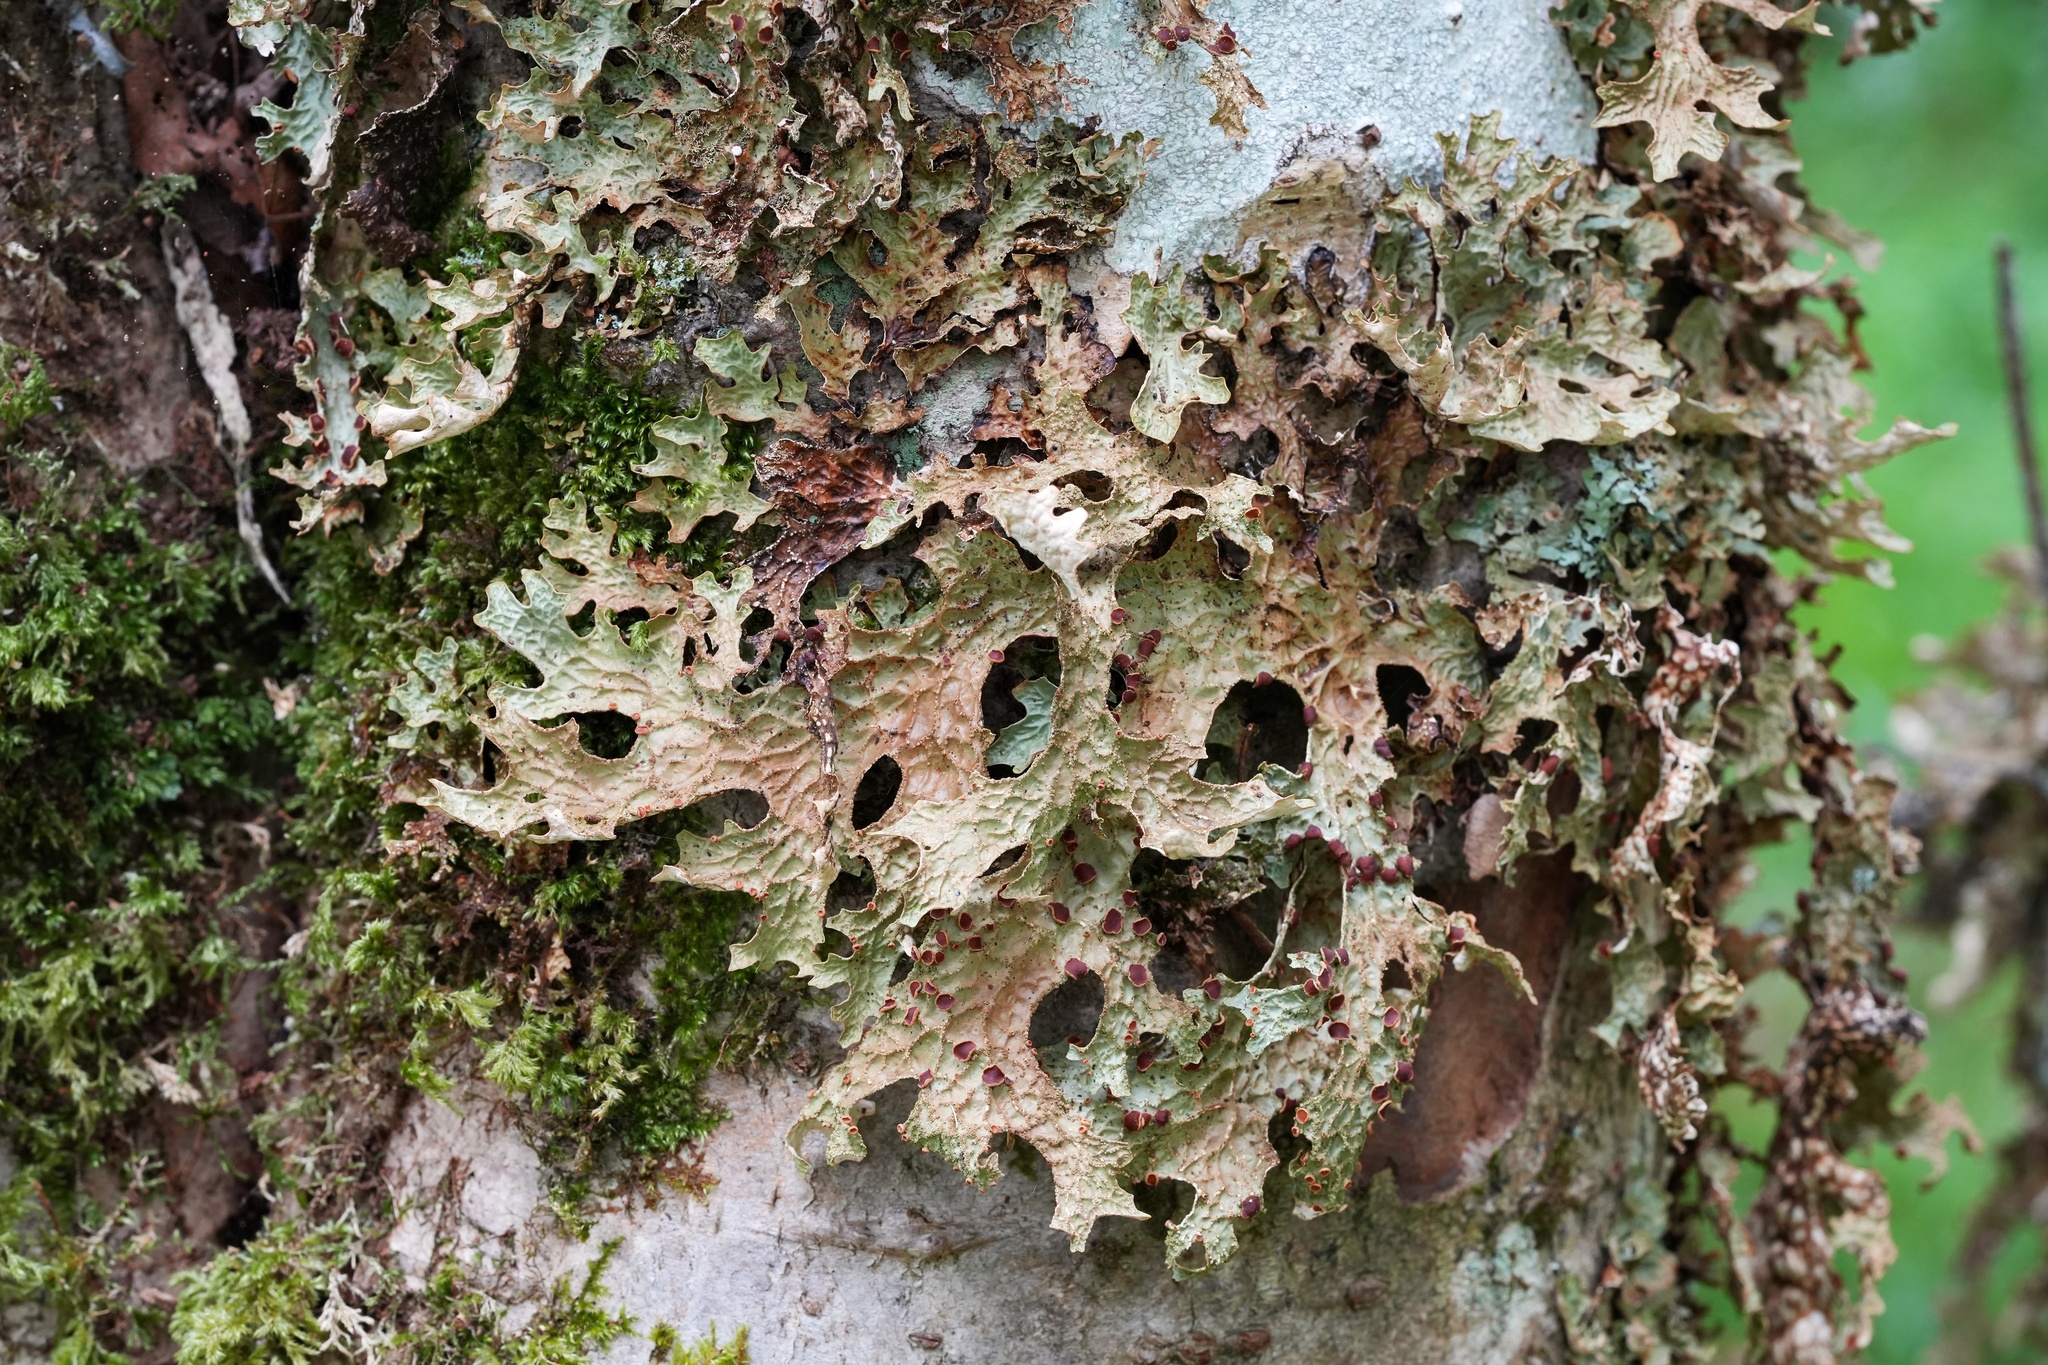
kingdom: Fungi
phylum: Ascomycota
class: Lecanoromycetes
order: Peltigerales
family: Lobariaceae
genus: Lobaria
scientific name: Lobaria pulmonaria
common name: Lungwort
